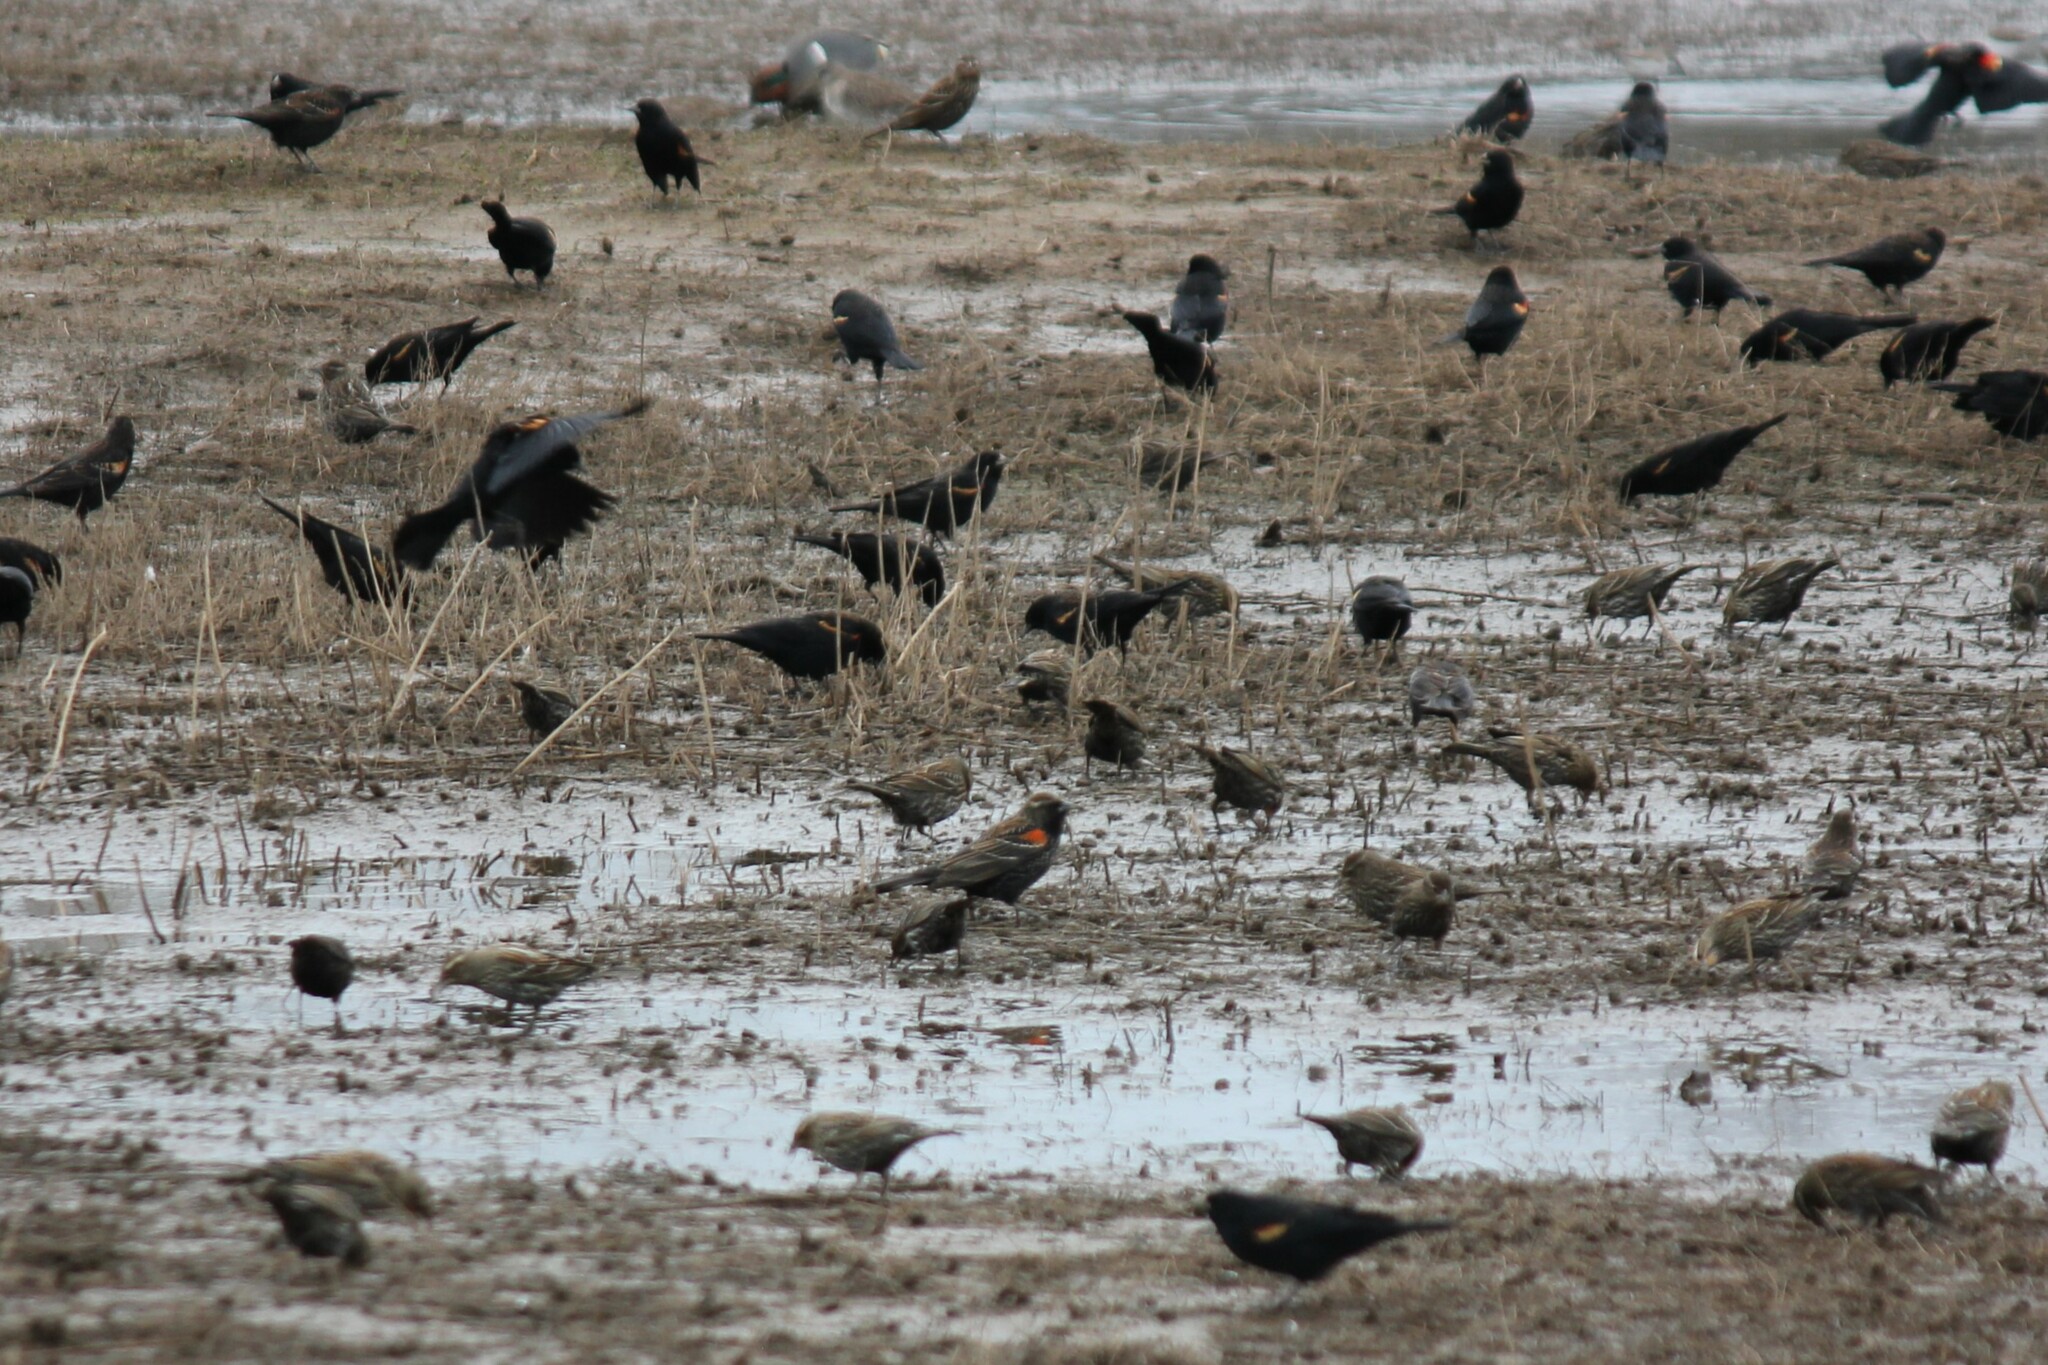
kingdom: Animalia
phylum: Chordata
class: Aves
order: Passeriformes
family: Icteridae
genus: Agelaius
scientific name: Agelaius phoeniceus
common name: Red-winged blackbird
